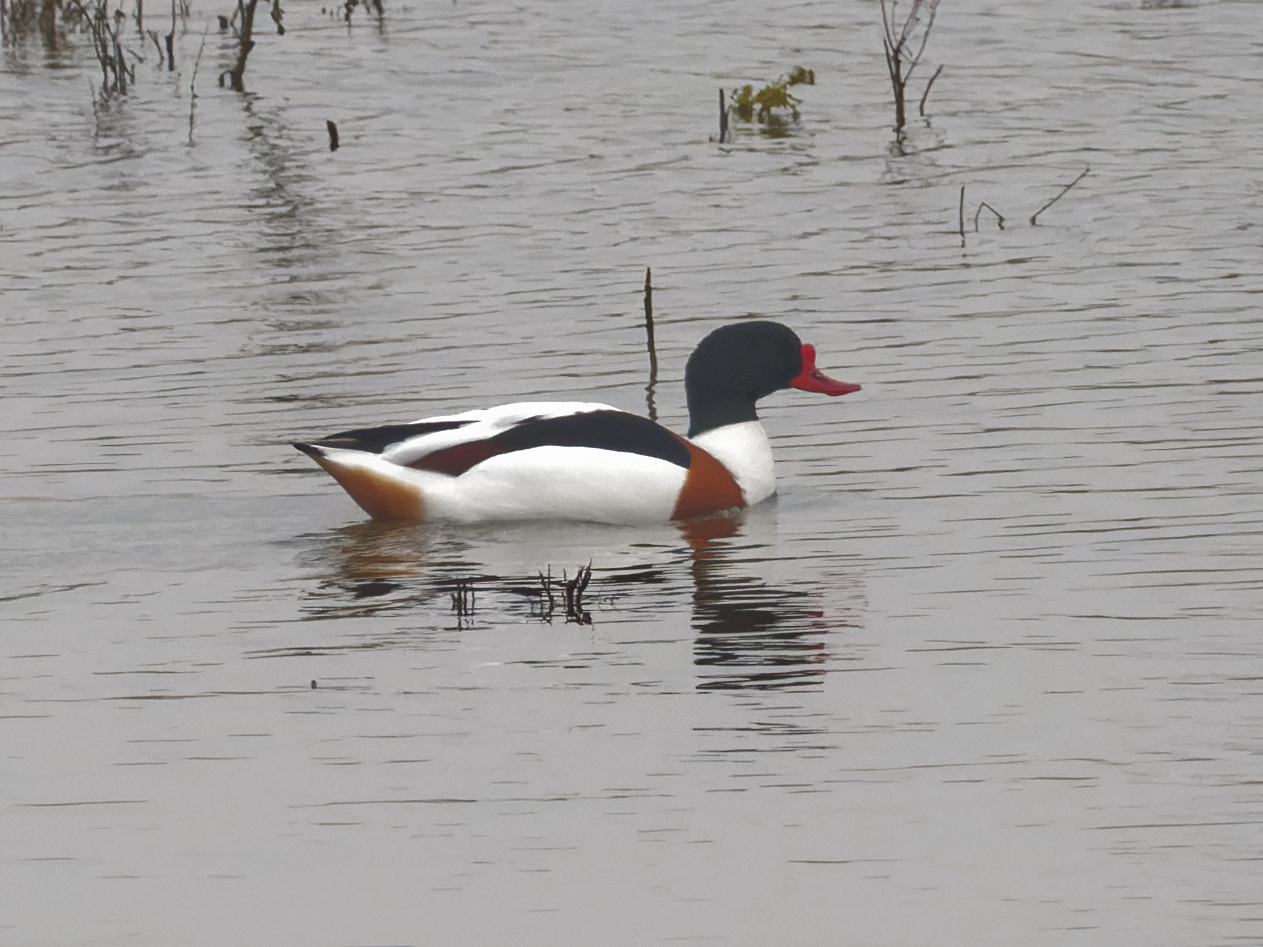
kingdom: Animalia
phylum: Chordata
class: Aves
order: Anseriformes
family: Anatidae
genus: Tadorna
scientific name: Tadorna tadorna
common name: Common shelduck
